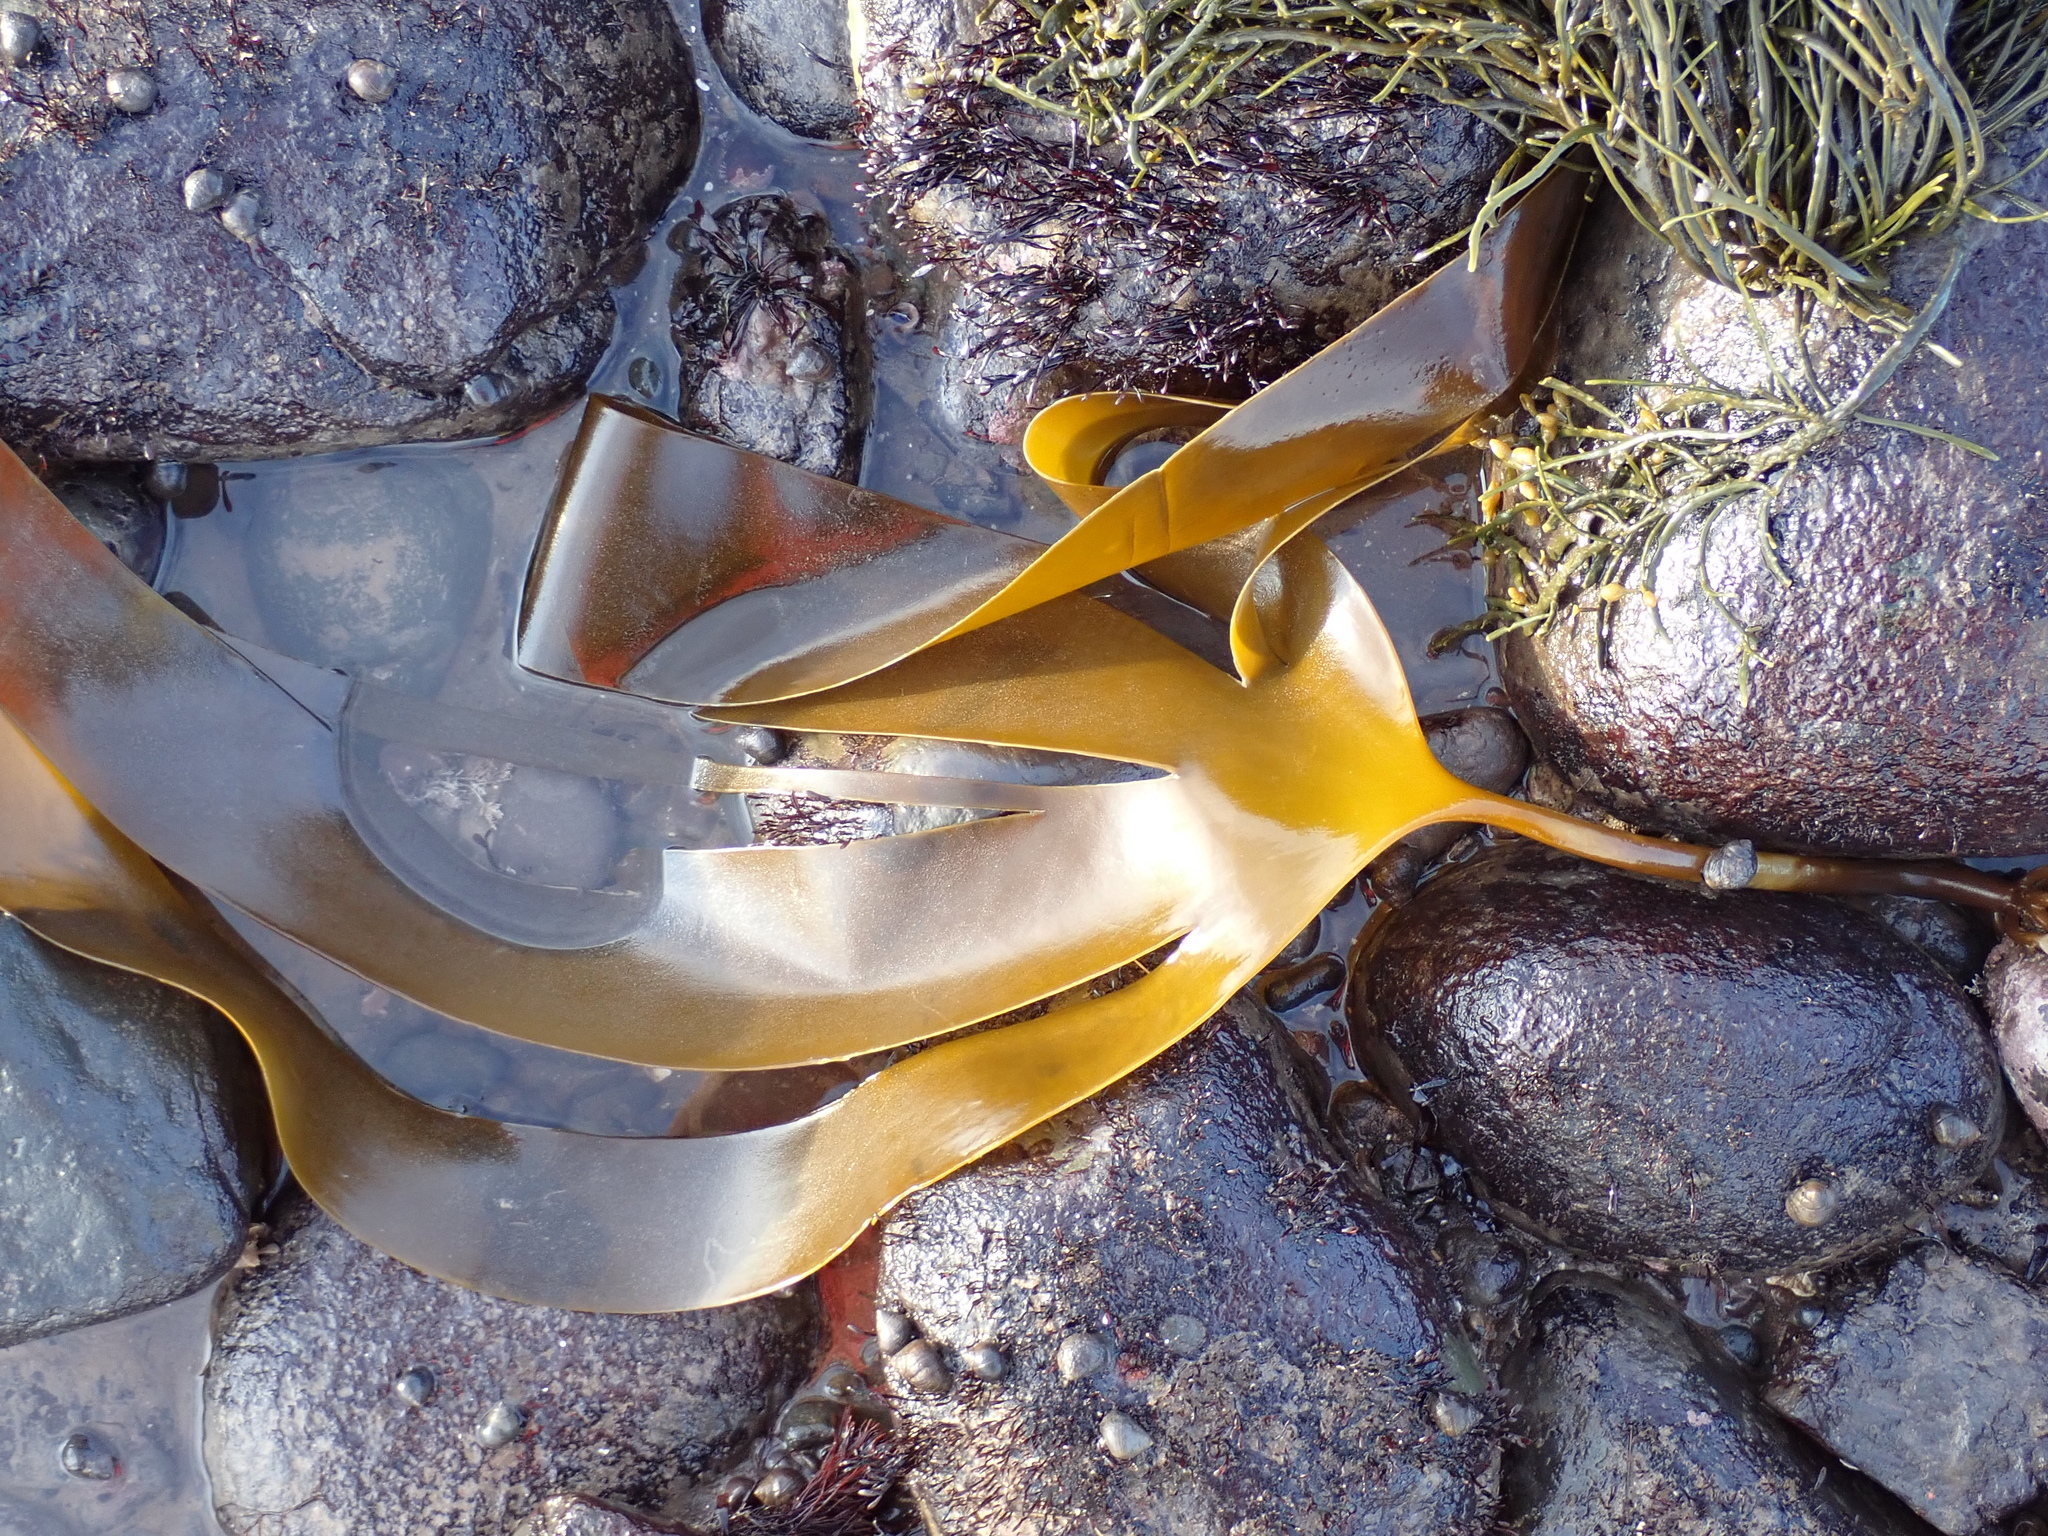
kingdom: Chromista
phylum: Ochrophyta
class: Phaeophyceae
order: Laminariales
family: Laminariaceae
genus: Laminaria
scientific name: Laminaria digitata
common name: Oarweed
